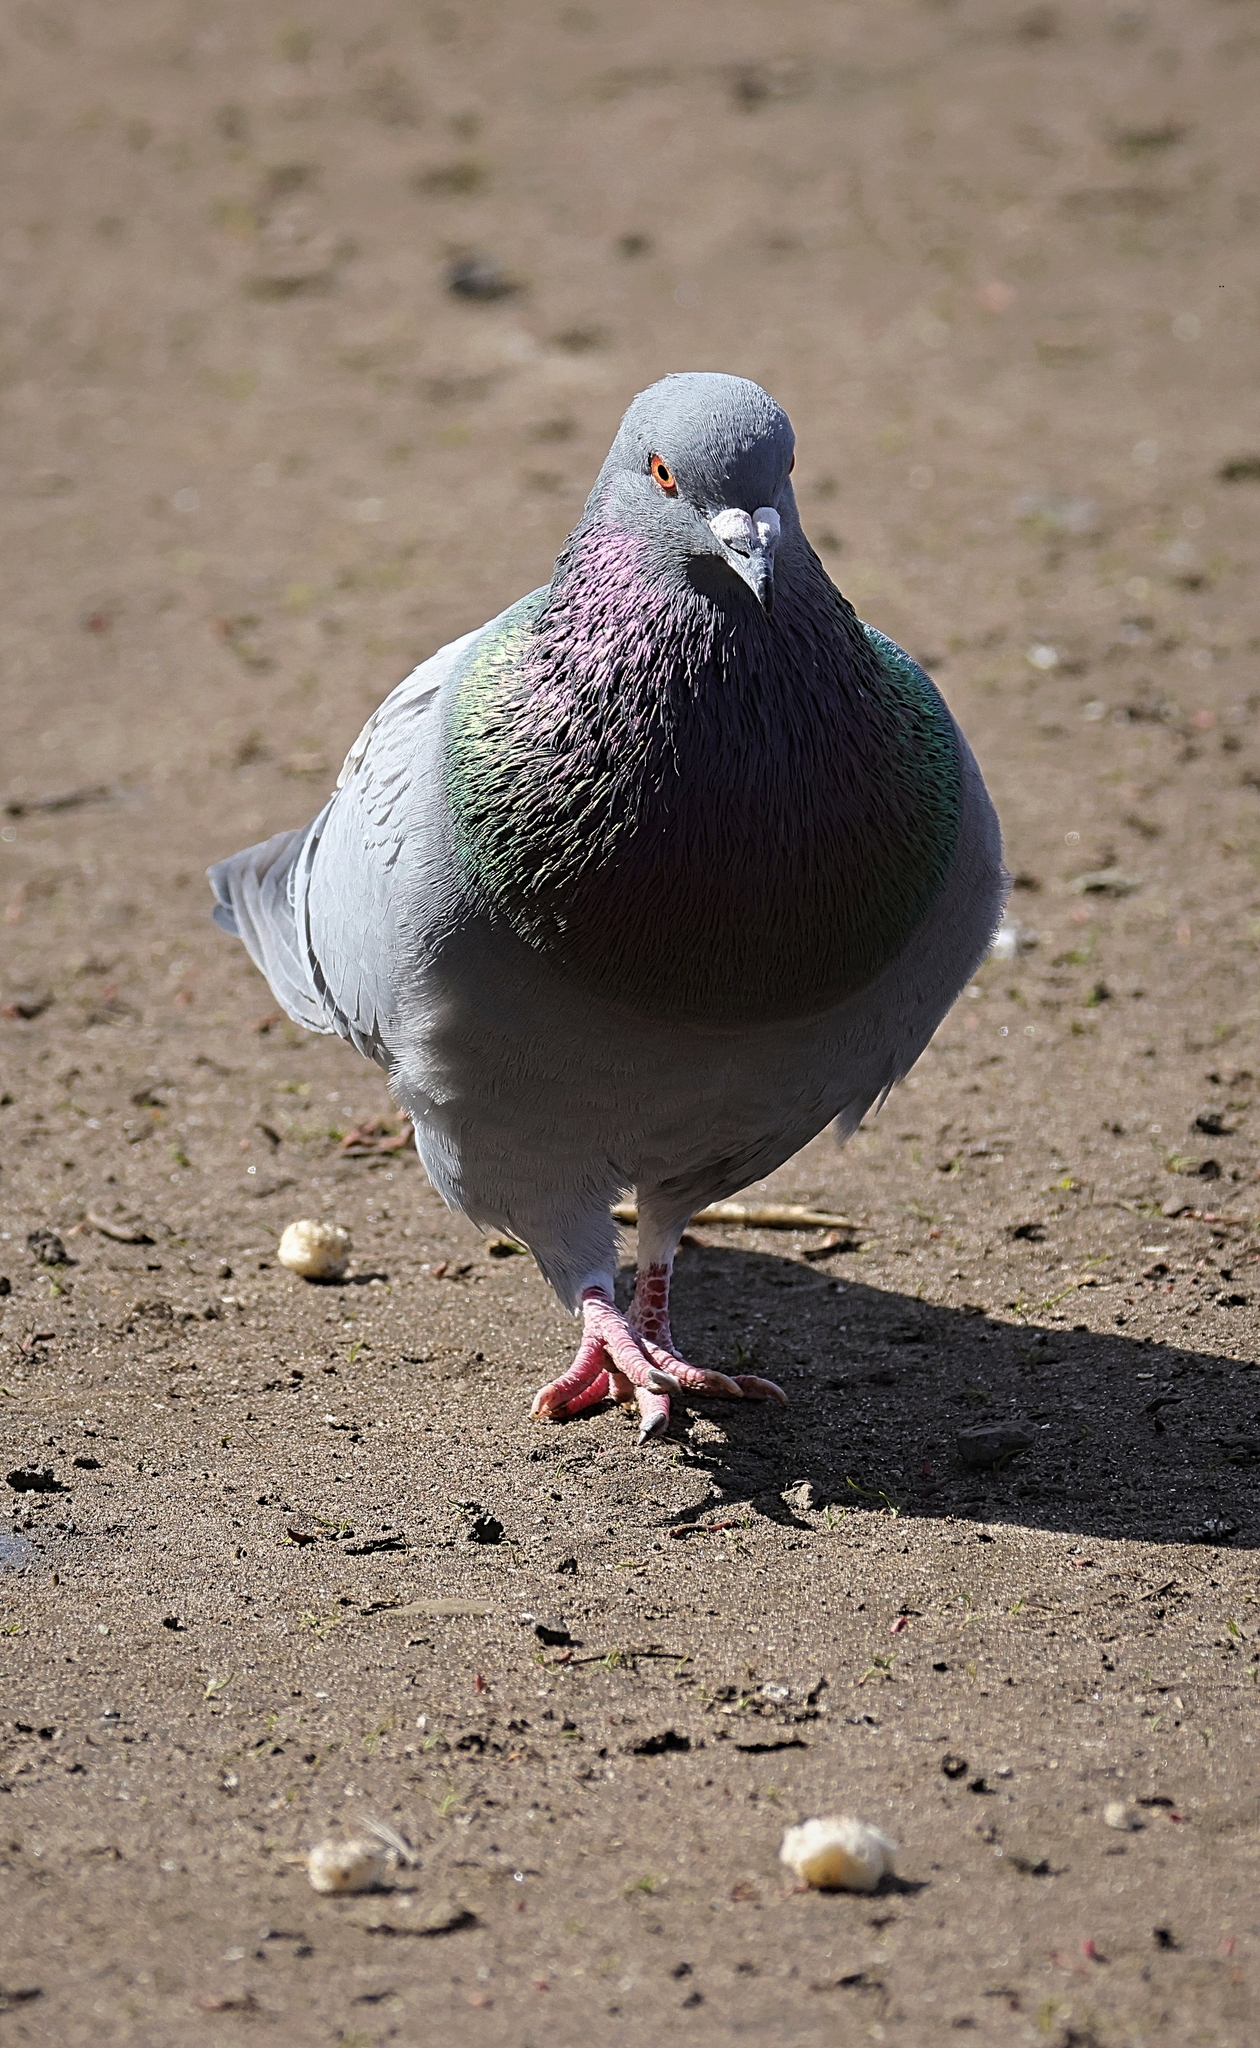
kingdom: Animalia
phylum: Chordata
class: Aves
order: Columbiformes
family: Columbidae
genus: Columba
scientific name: Columba livia
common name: Rock pigeon
